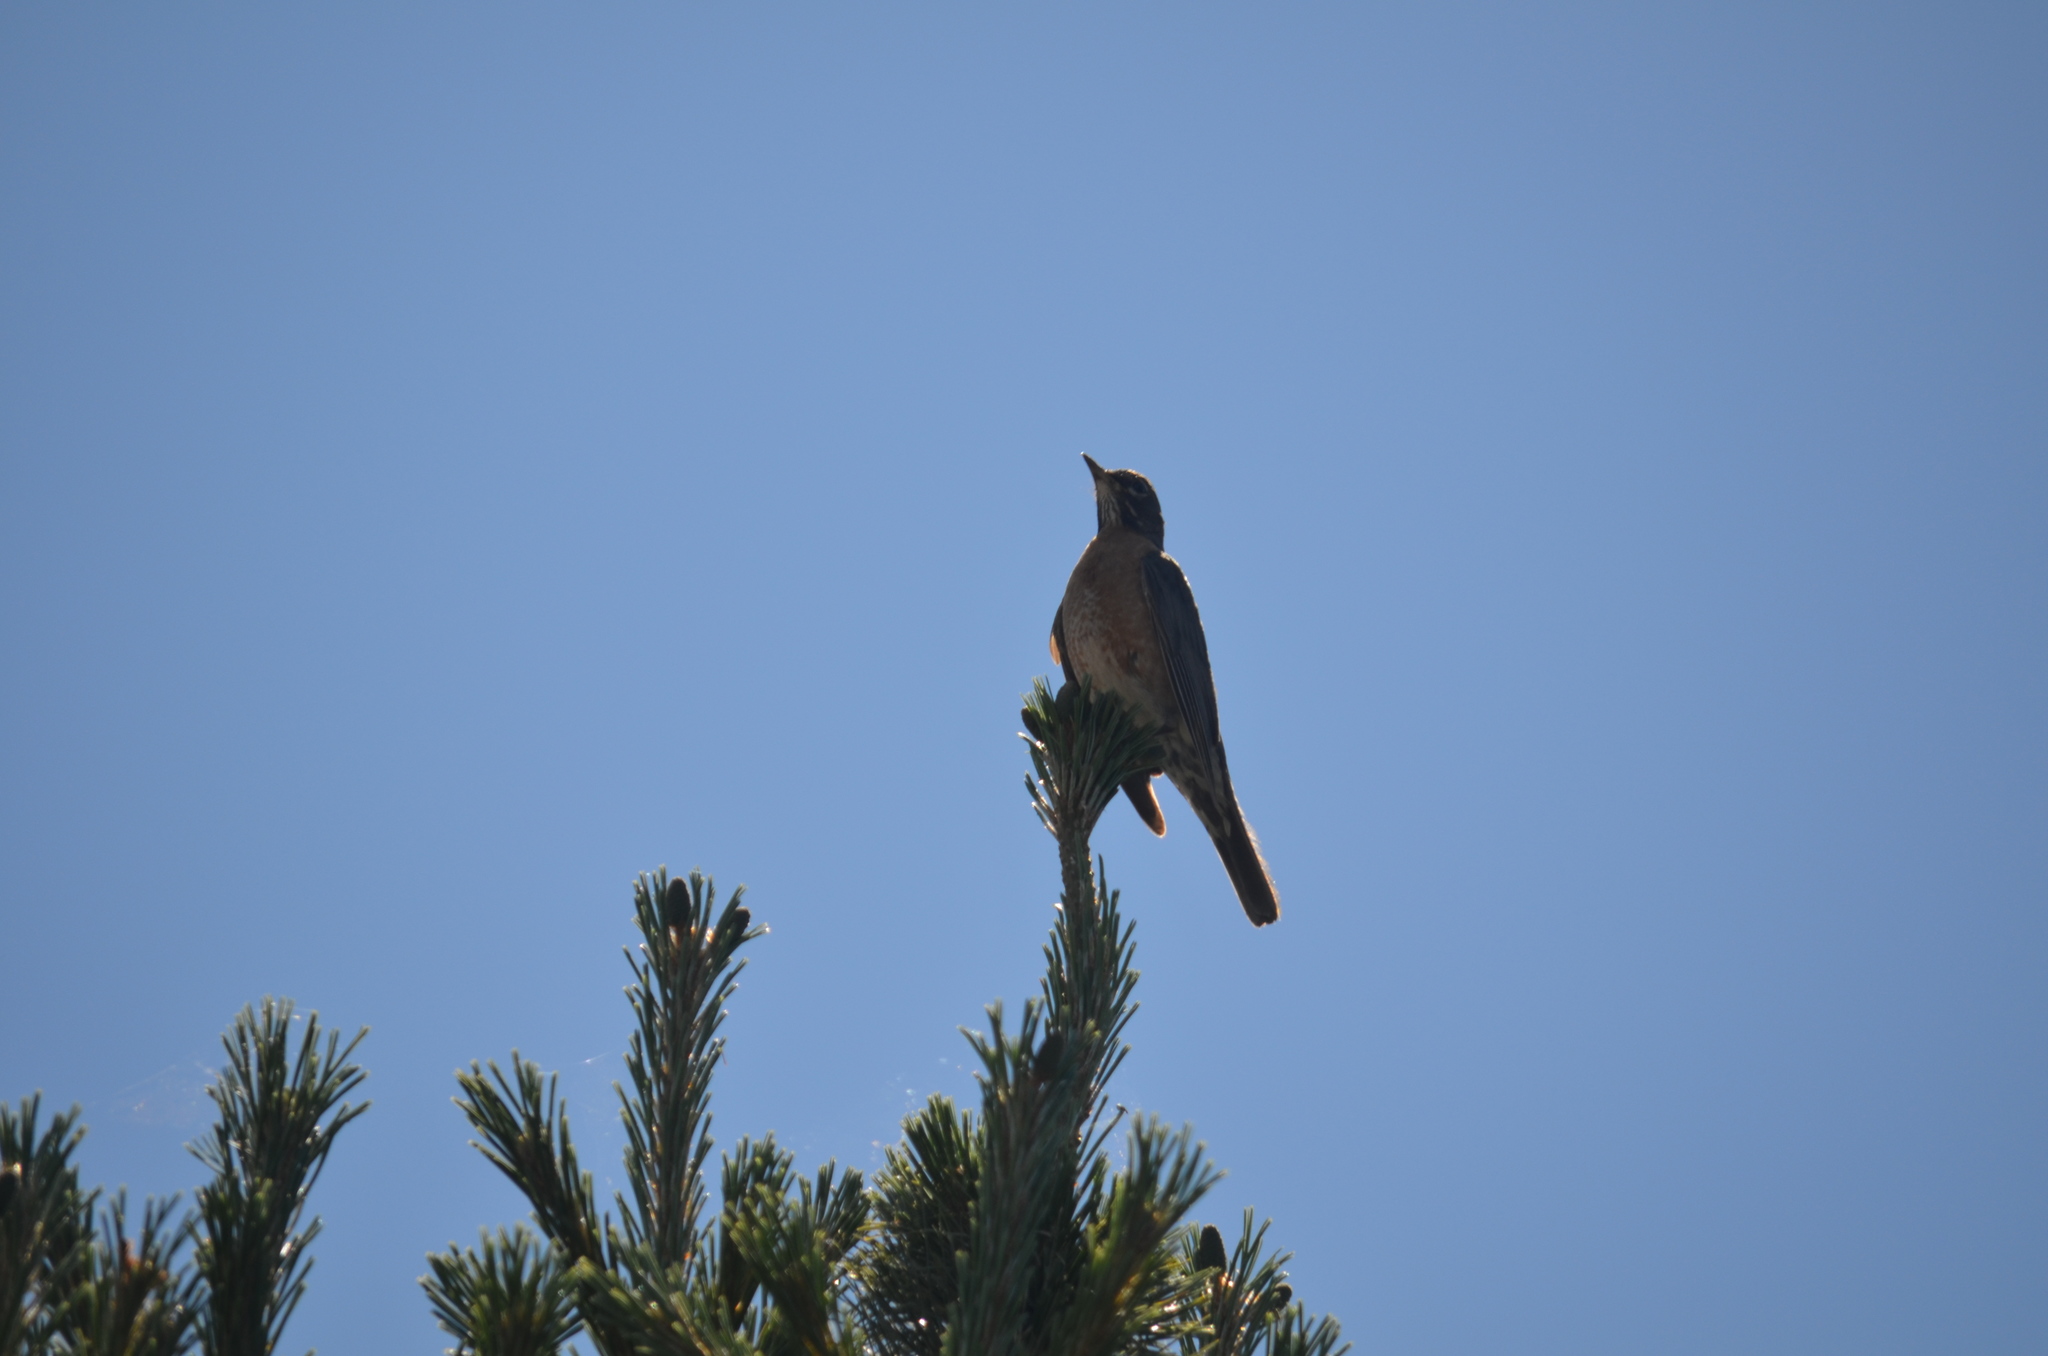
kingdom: Animalia
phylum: Chordata
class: Aves
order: Passeriformes
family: Turdidae
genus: Turdus
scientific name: Turdus migratorius
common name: American robin
